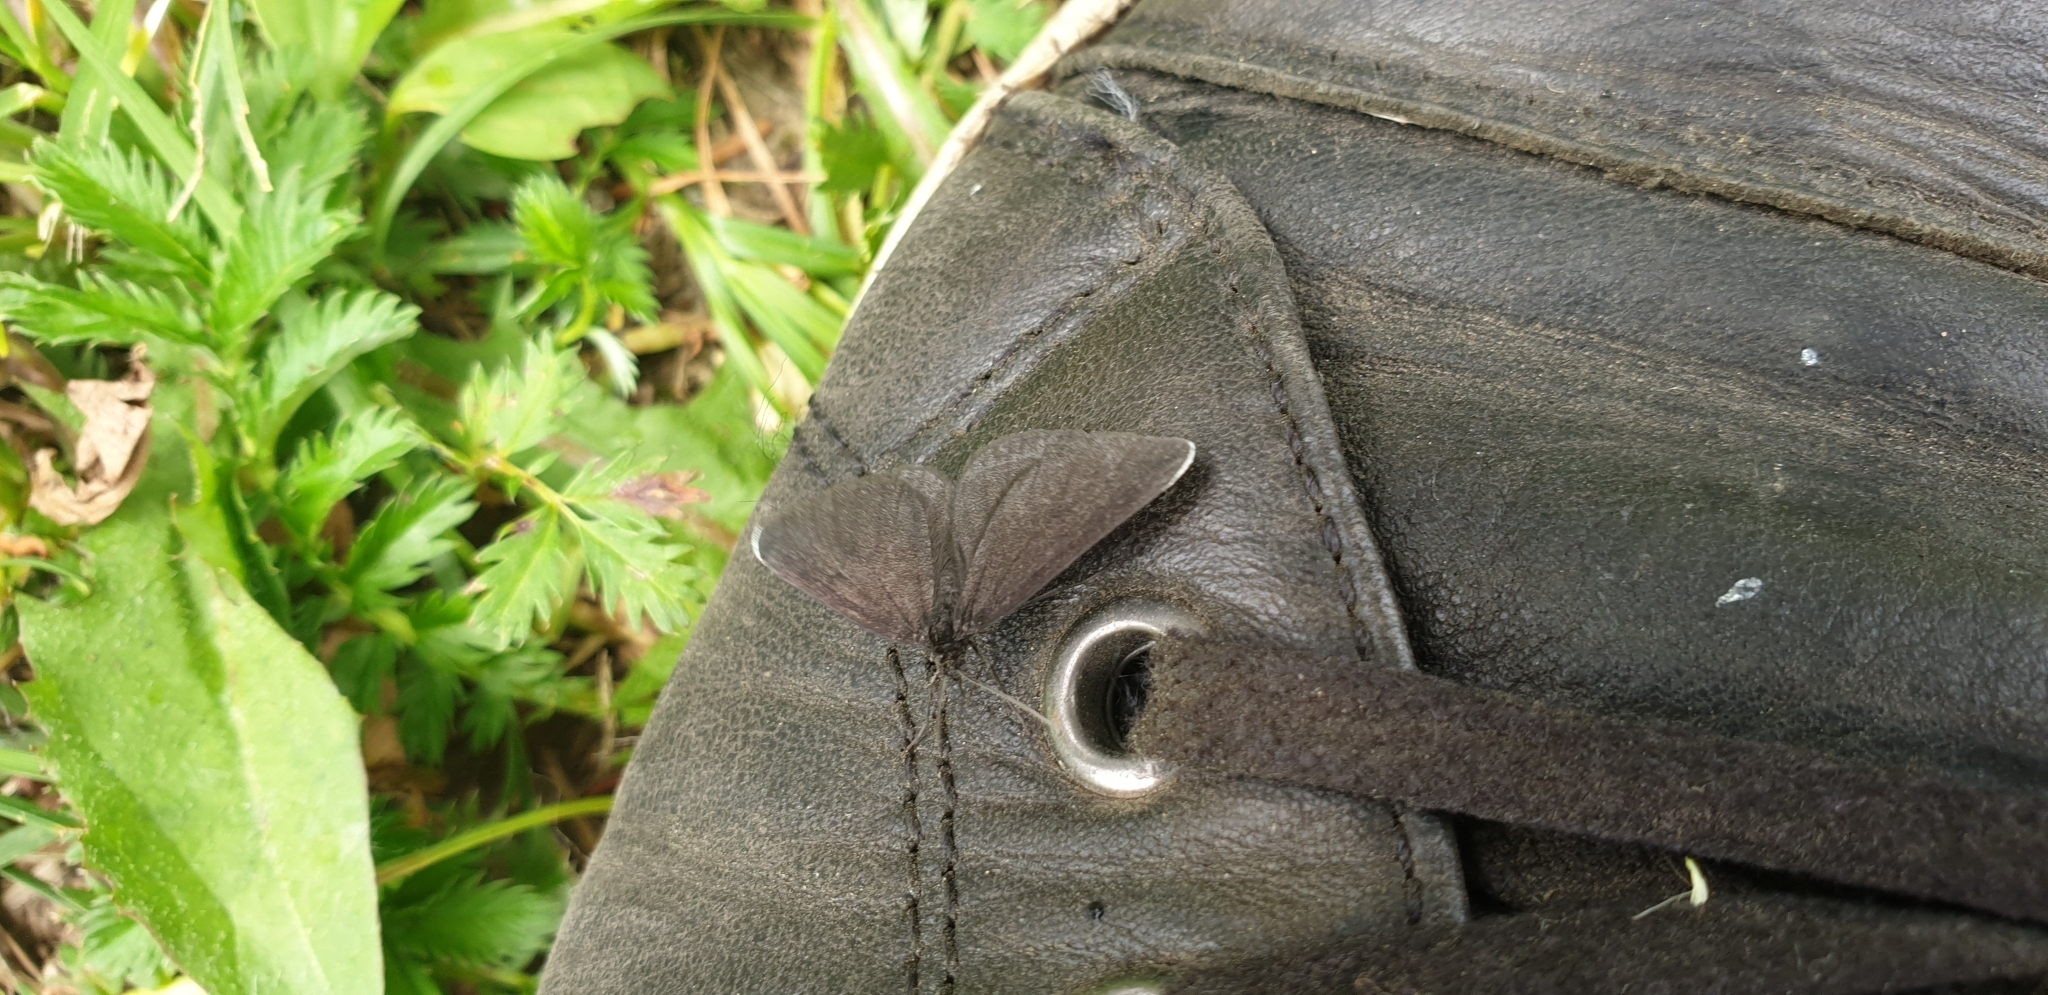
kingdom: Animalia
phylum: Arthropoda
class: Insecta
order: Lepidoptera
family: Geometridae
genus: Odezia
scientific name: Odezia atrata
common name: Chimney sweeper
